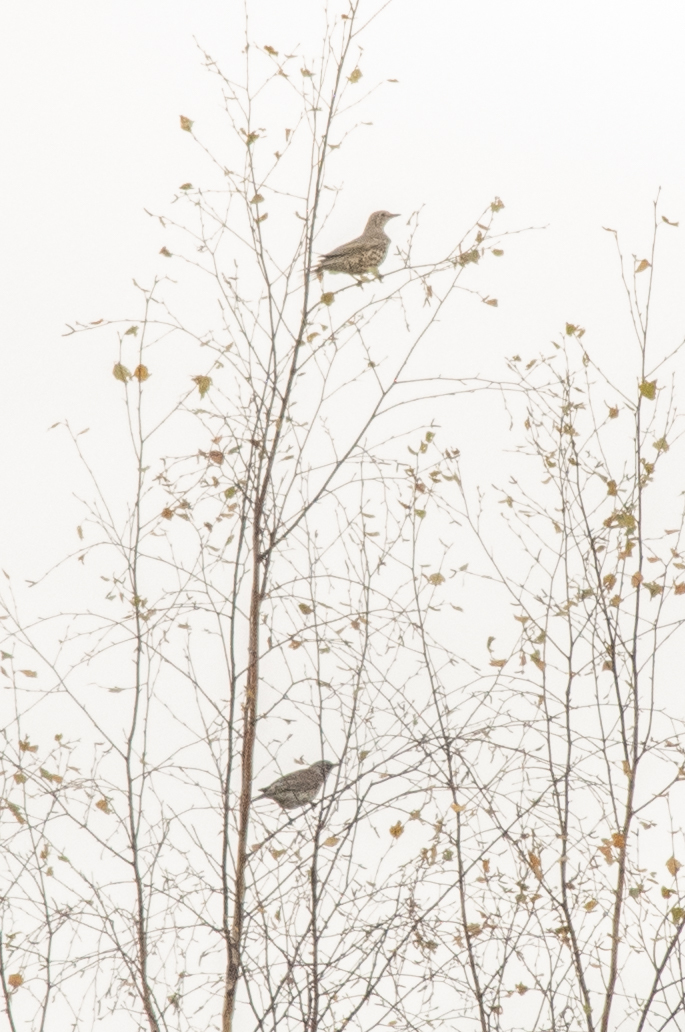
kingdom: Animalia
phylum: Chordata
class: Aves
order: Passeriformes
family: Turdidae
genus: Turdus
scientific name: Turdus viscivorus
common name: Mistle thrush
